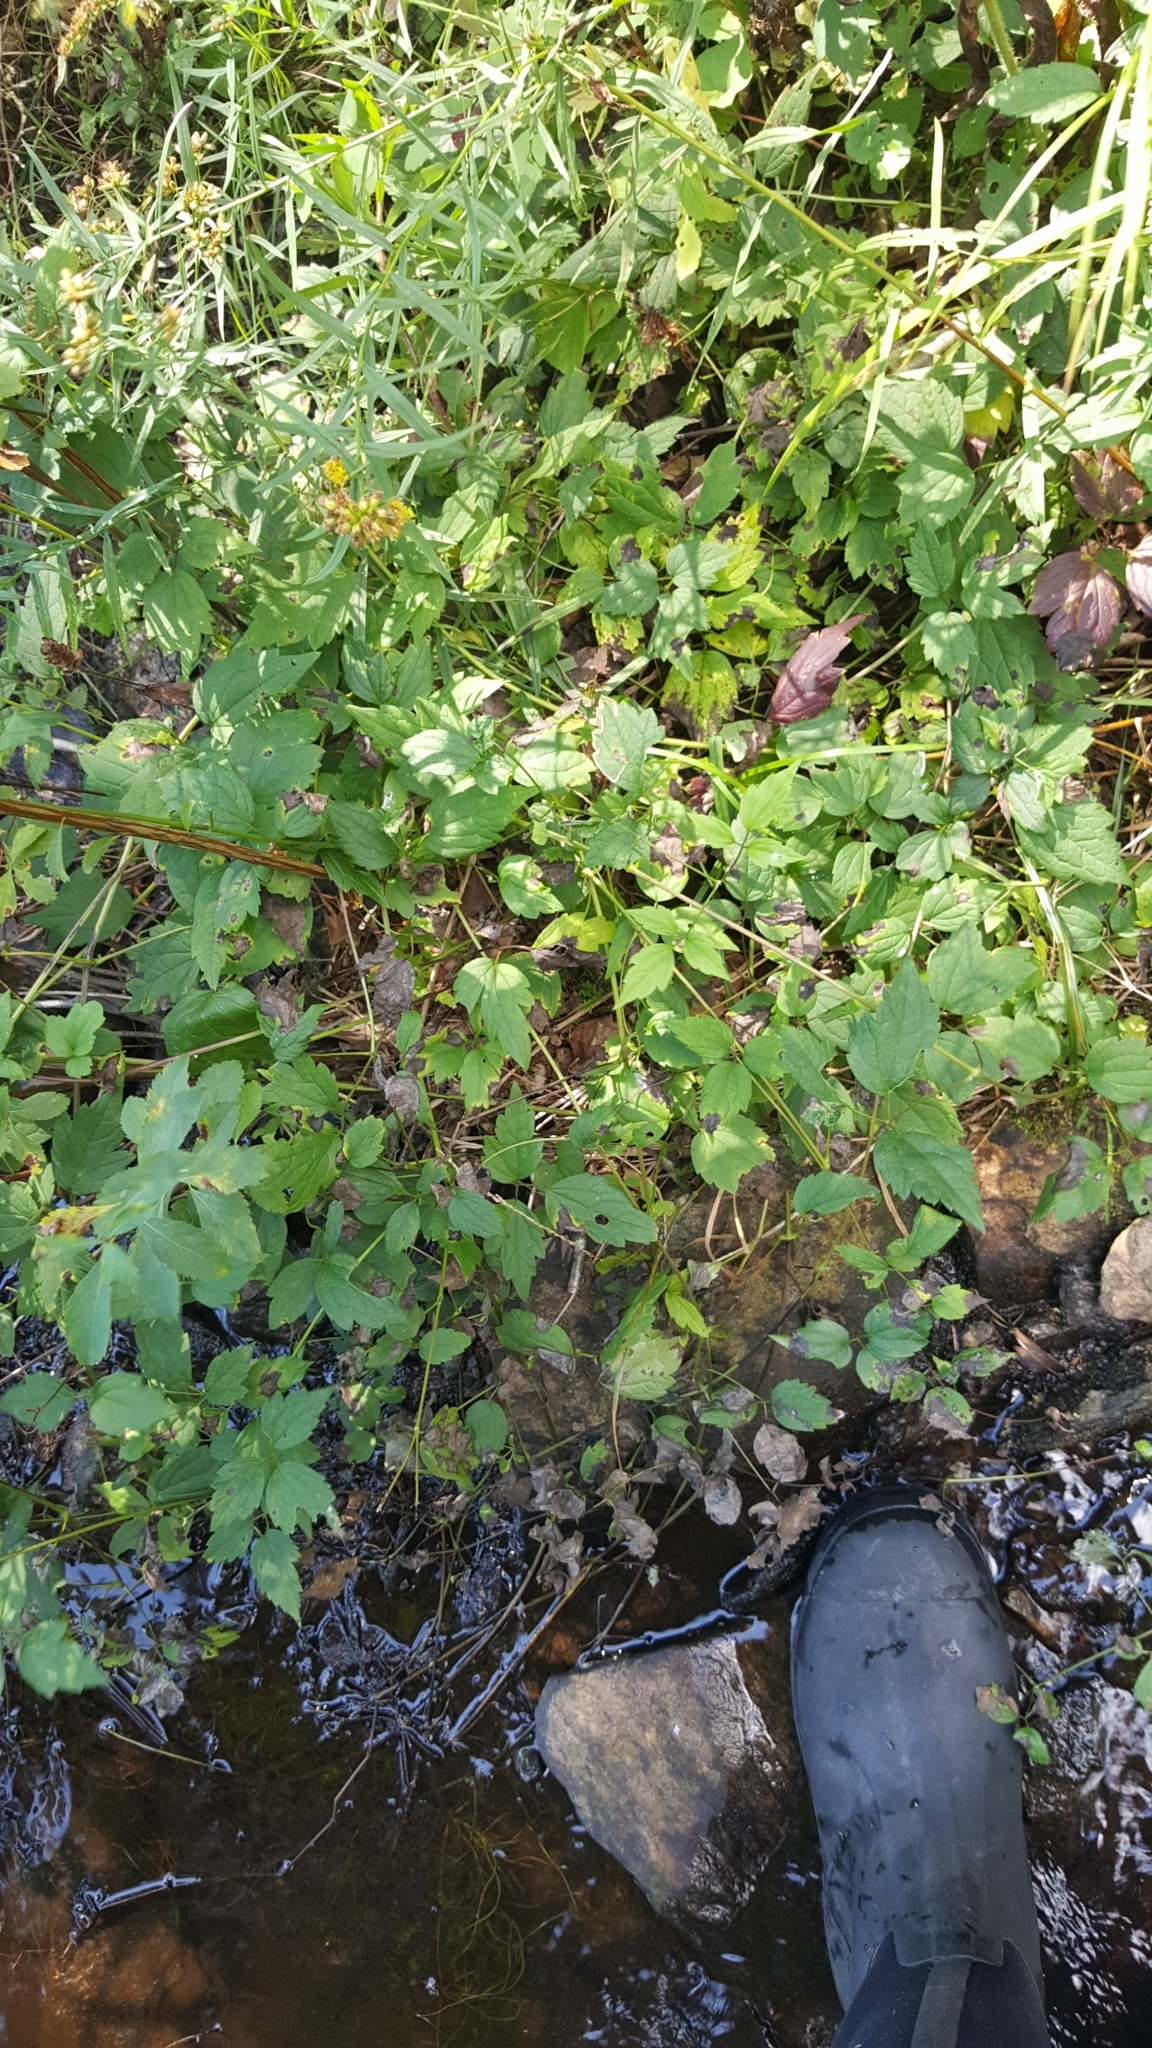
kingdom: Plantae
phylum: Tracheophyta
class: Magnoliopsida
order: Ranunculales
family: Ranunculaceae
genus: Clematis
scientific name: Clematis virginiana
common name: Virgin's-bower
